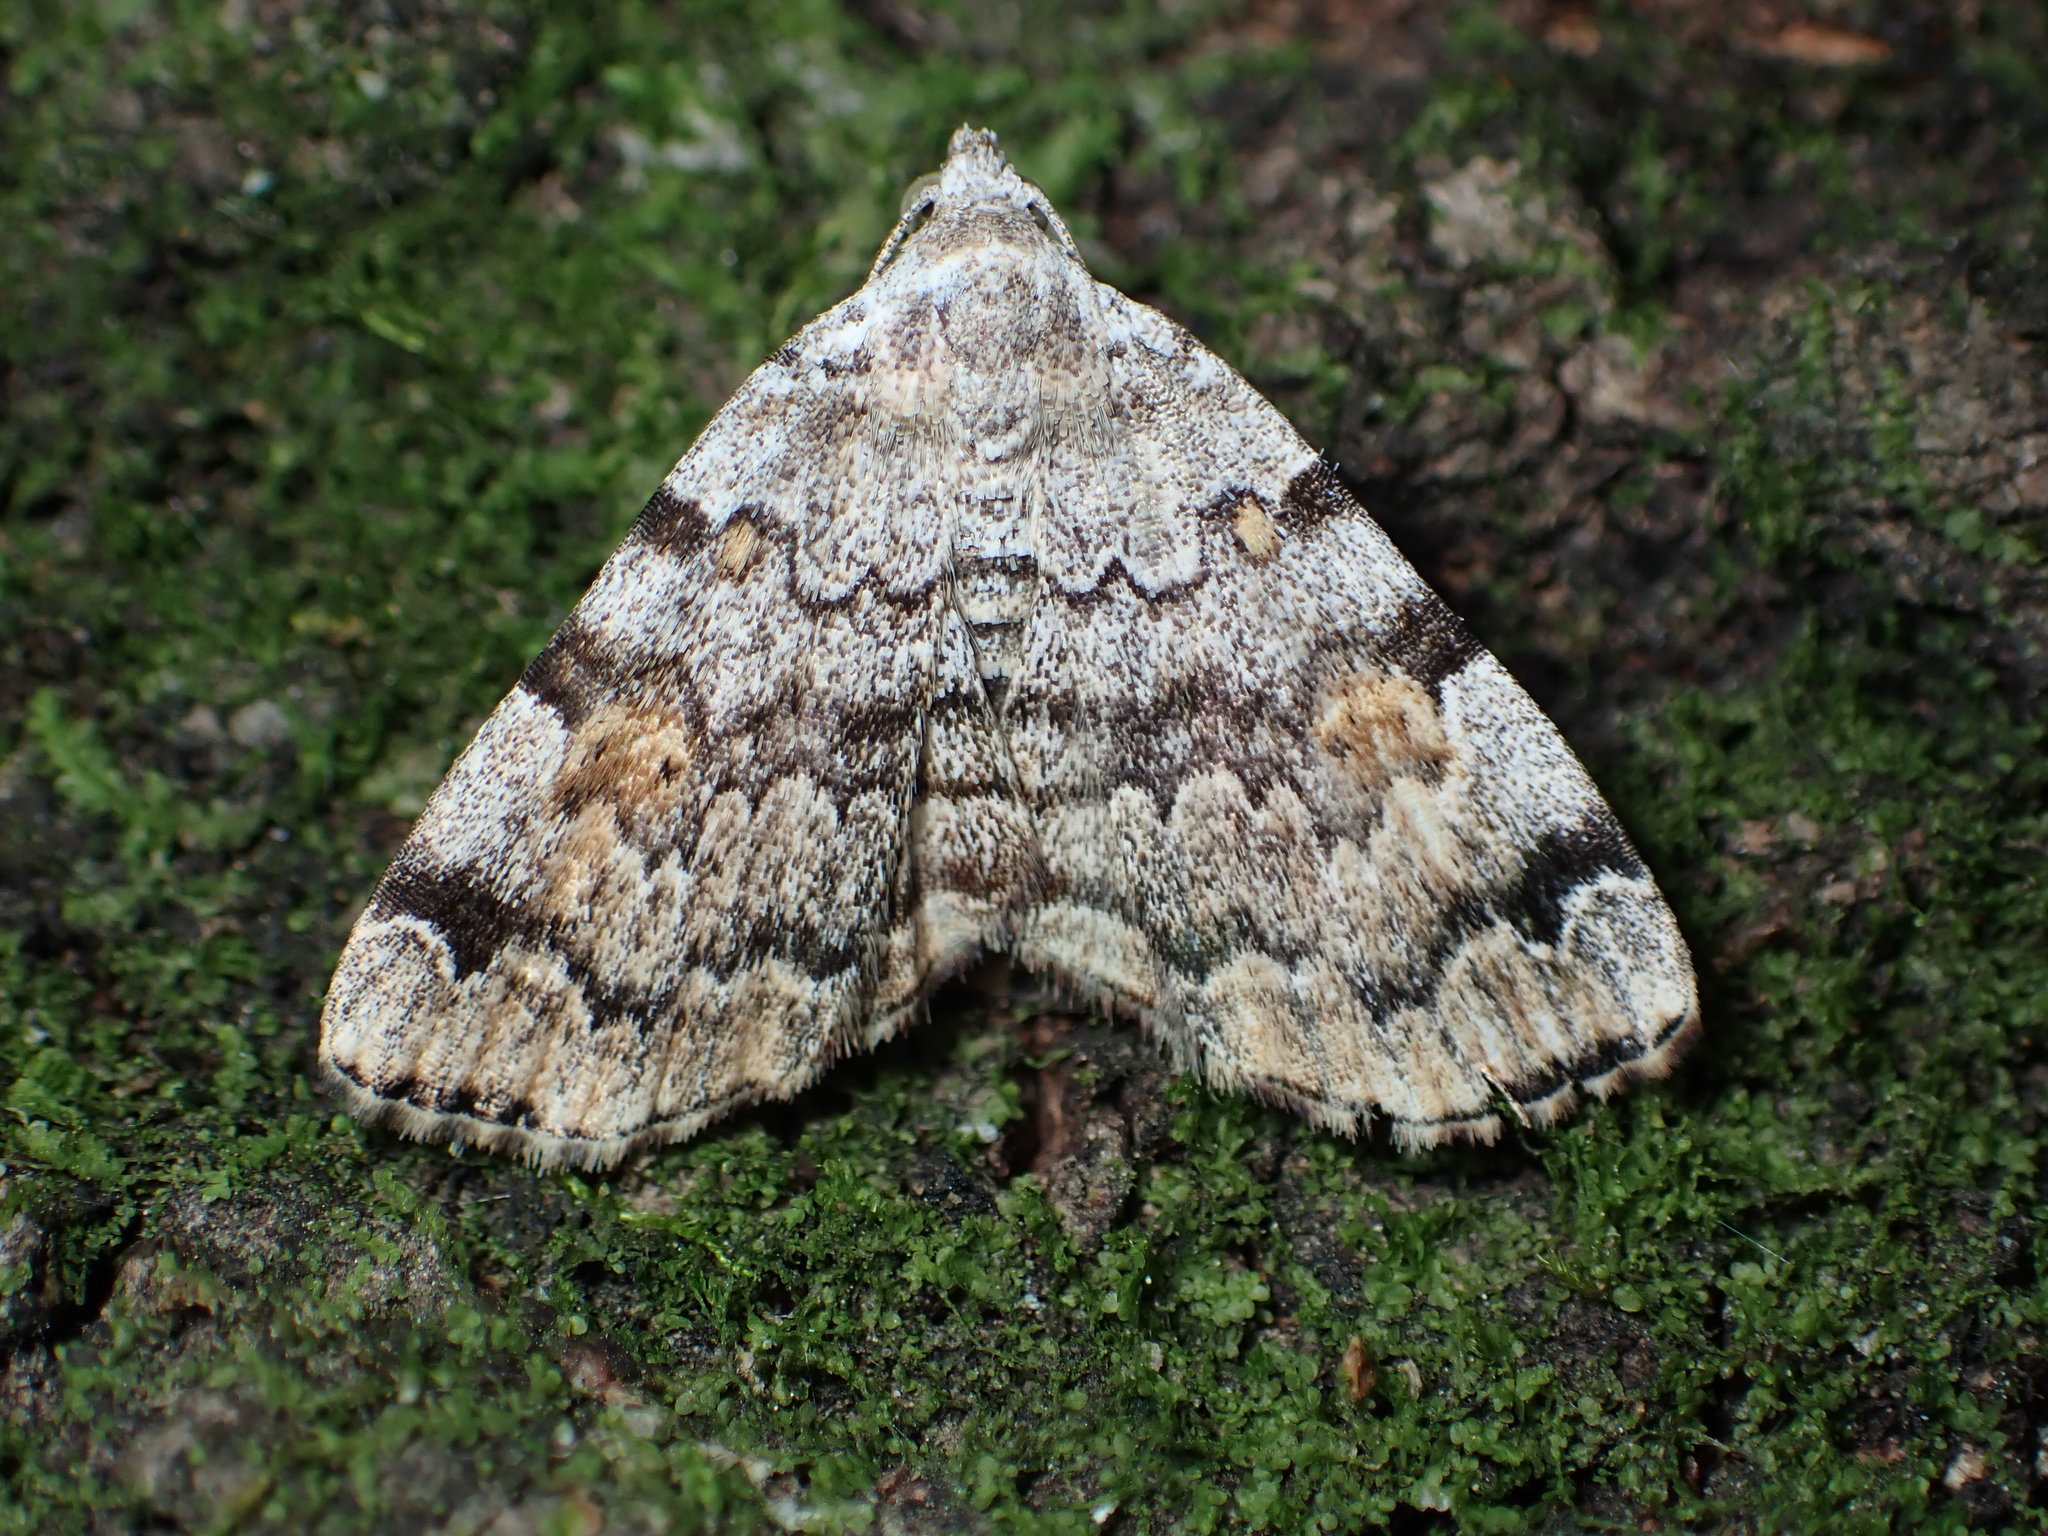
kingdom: Animalia
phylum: Arthropoda
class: Insecta
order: Lepidoptera
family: Erebidae
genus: Idia
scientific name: Idia americalis
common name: American idia moth
